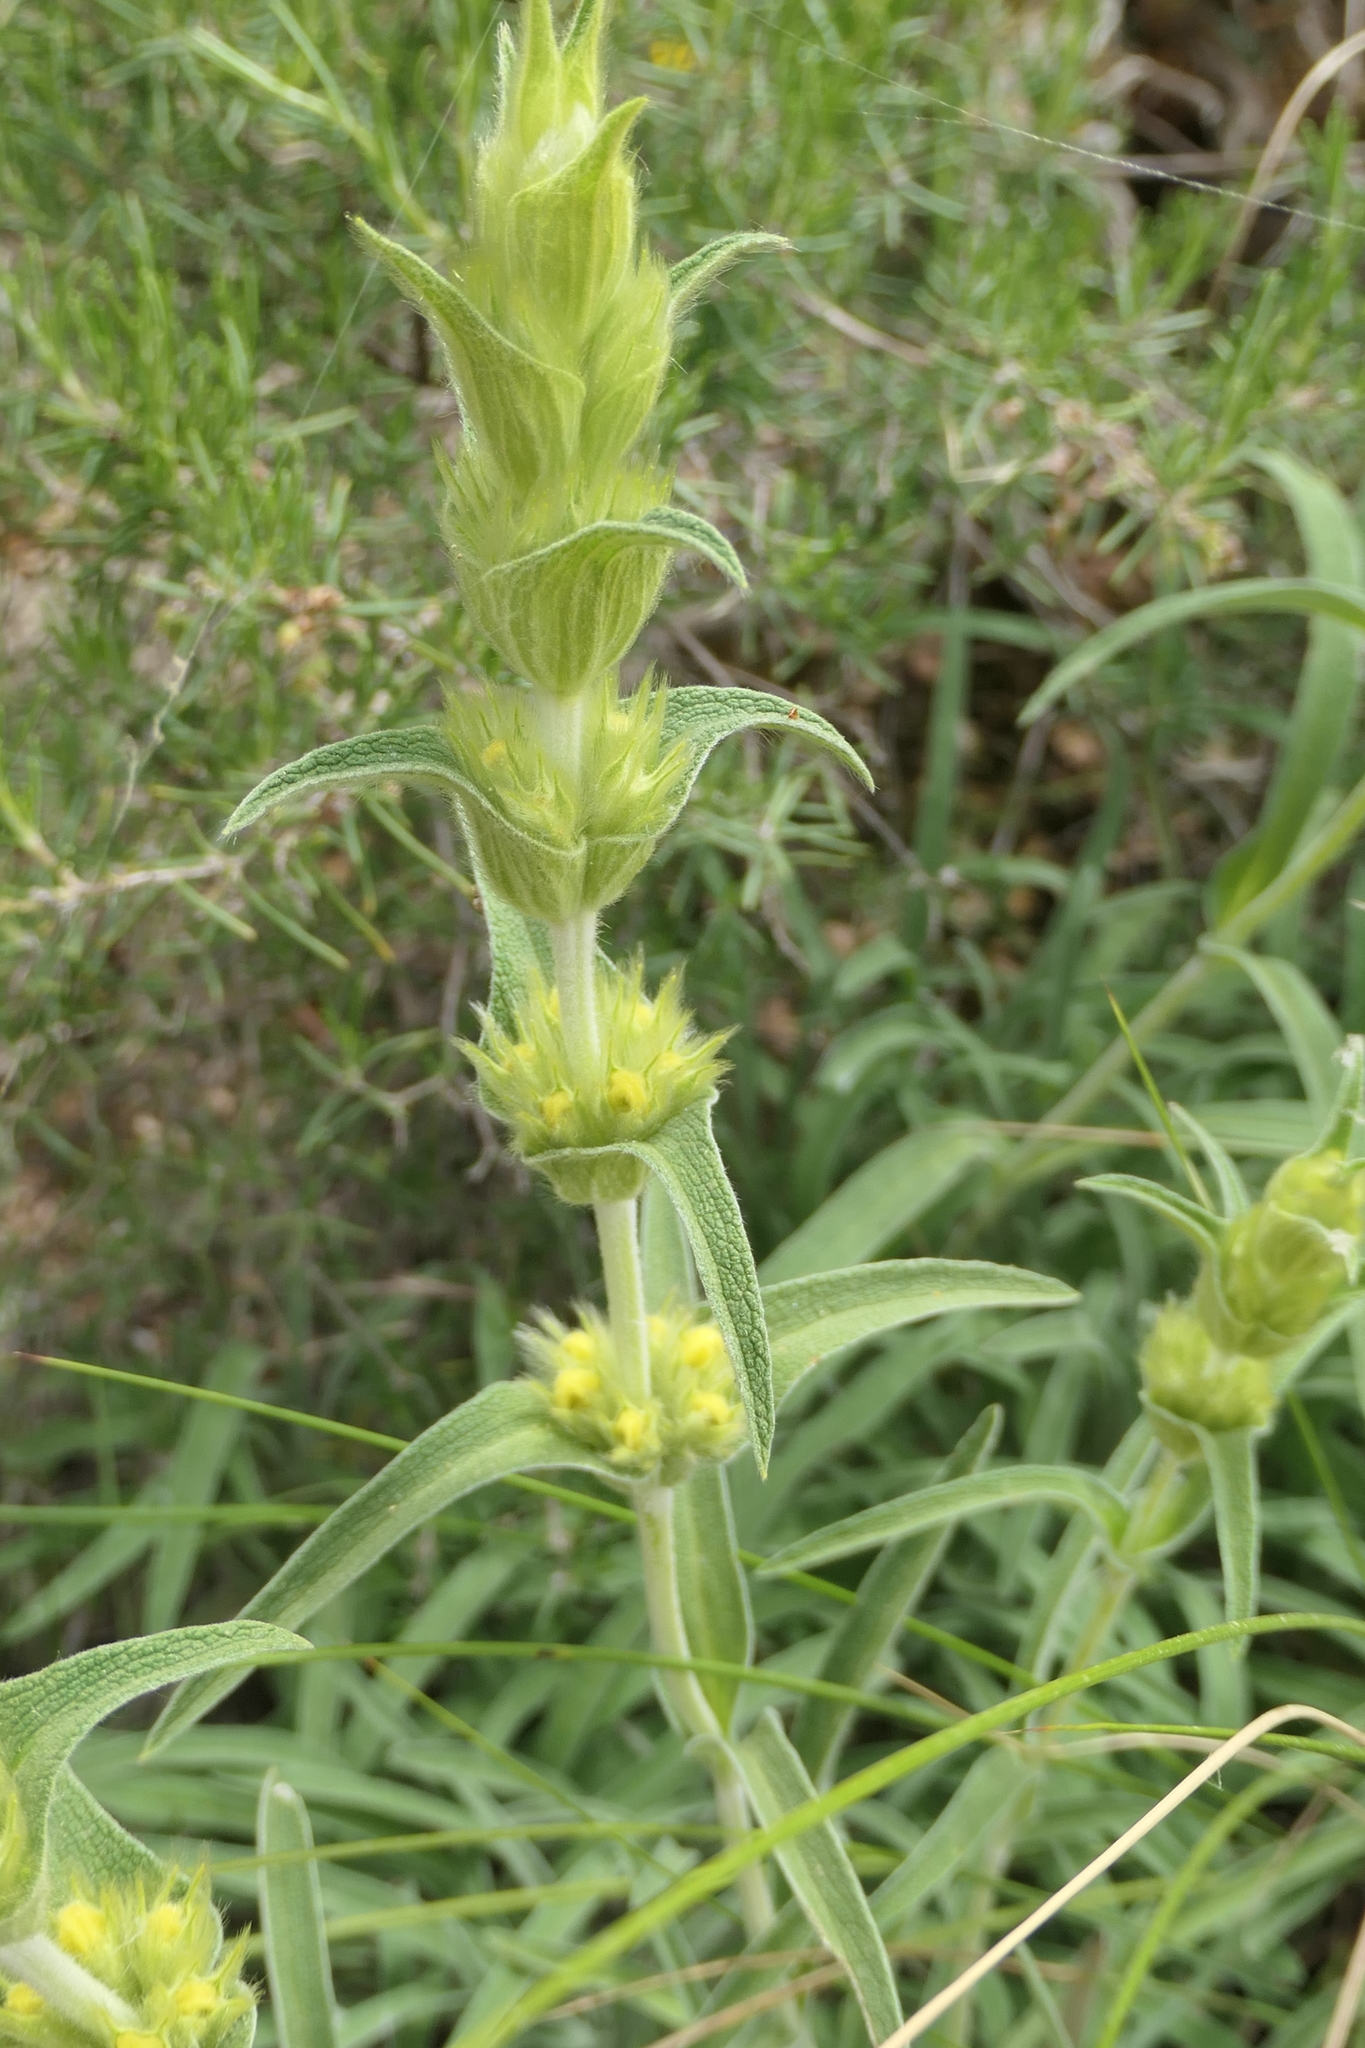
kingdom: Plantae
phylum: Tracheophyta
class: Magnoliopsida
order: Lamiales
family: Lamiaceae
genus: Phlomis
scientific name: Phlomis lychnitis
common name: Lampwickplant
